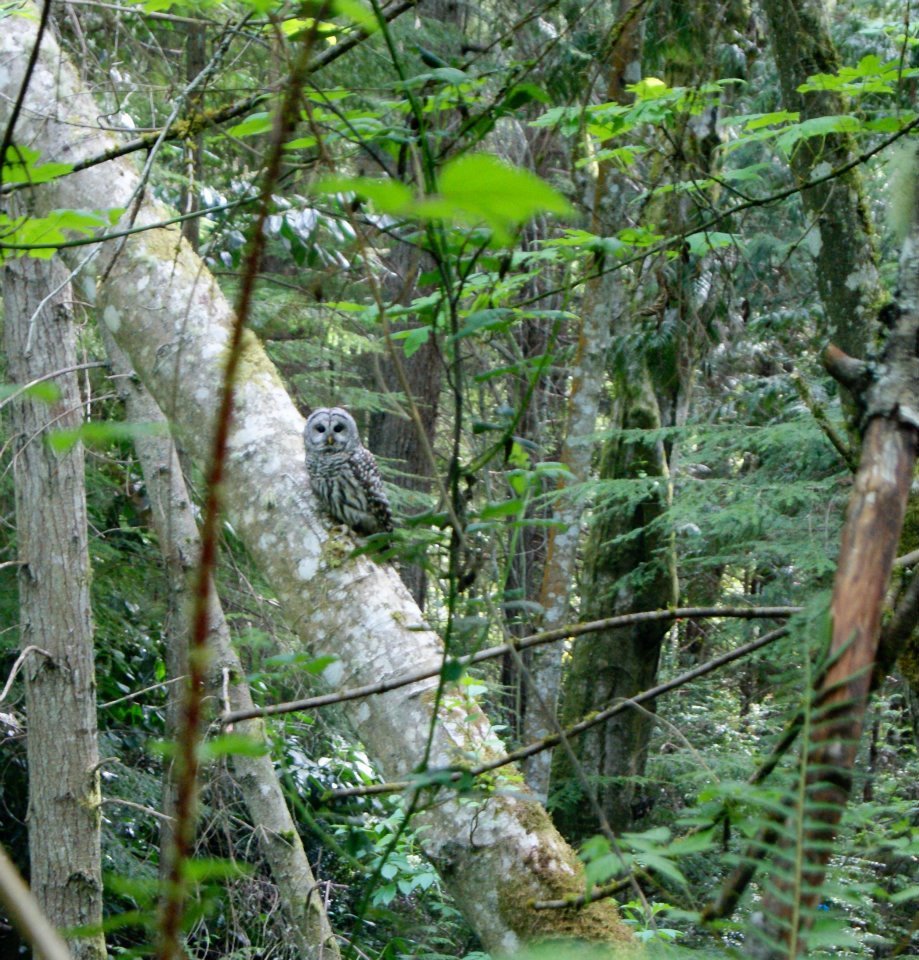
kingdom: Animalia
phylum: Chordata
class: Aves
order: Strigiformes
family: Strigidae
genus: Strix
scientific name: Strix varia
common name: Barred owl
